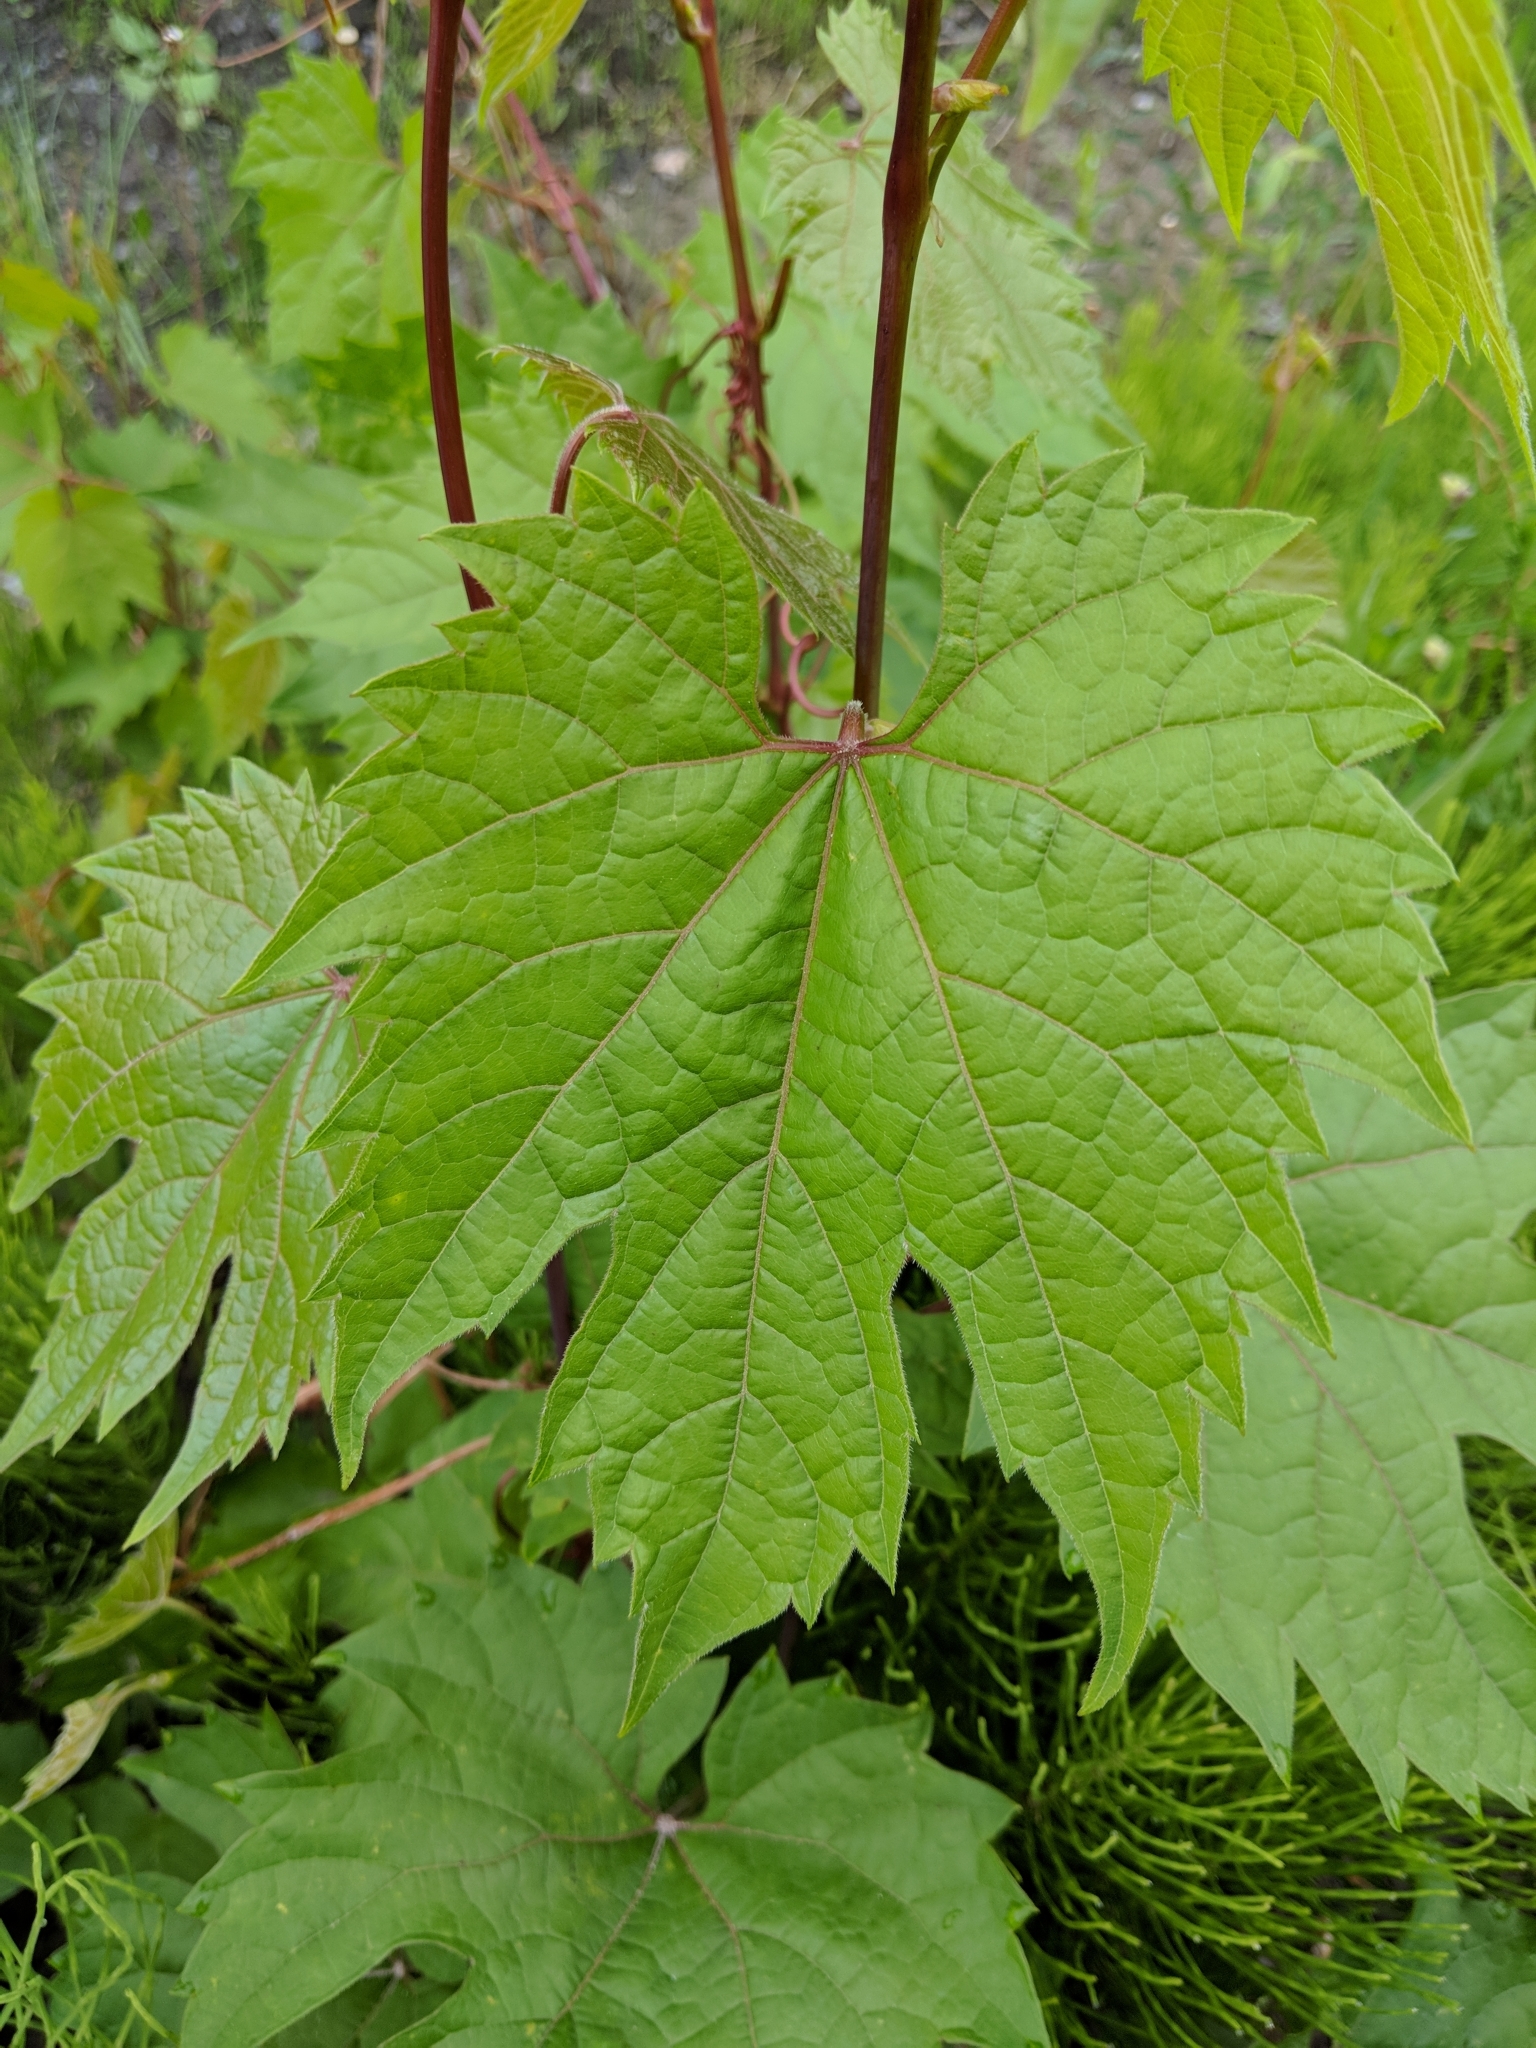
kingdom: Plantae
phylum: Tracheophyta
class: Magnoliopsida
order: Vitales
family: Vitaceae
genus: Vitis
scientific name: Vitis riparia
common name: Frost grape
